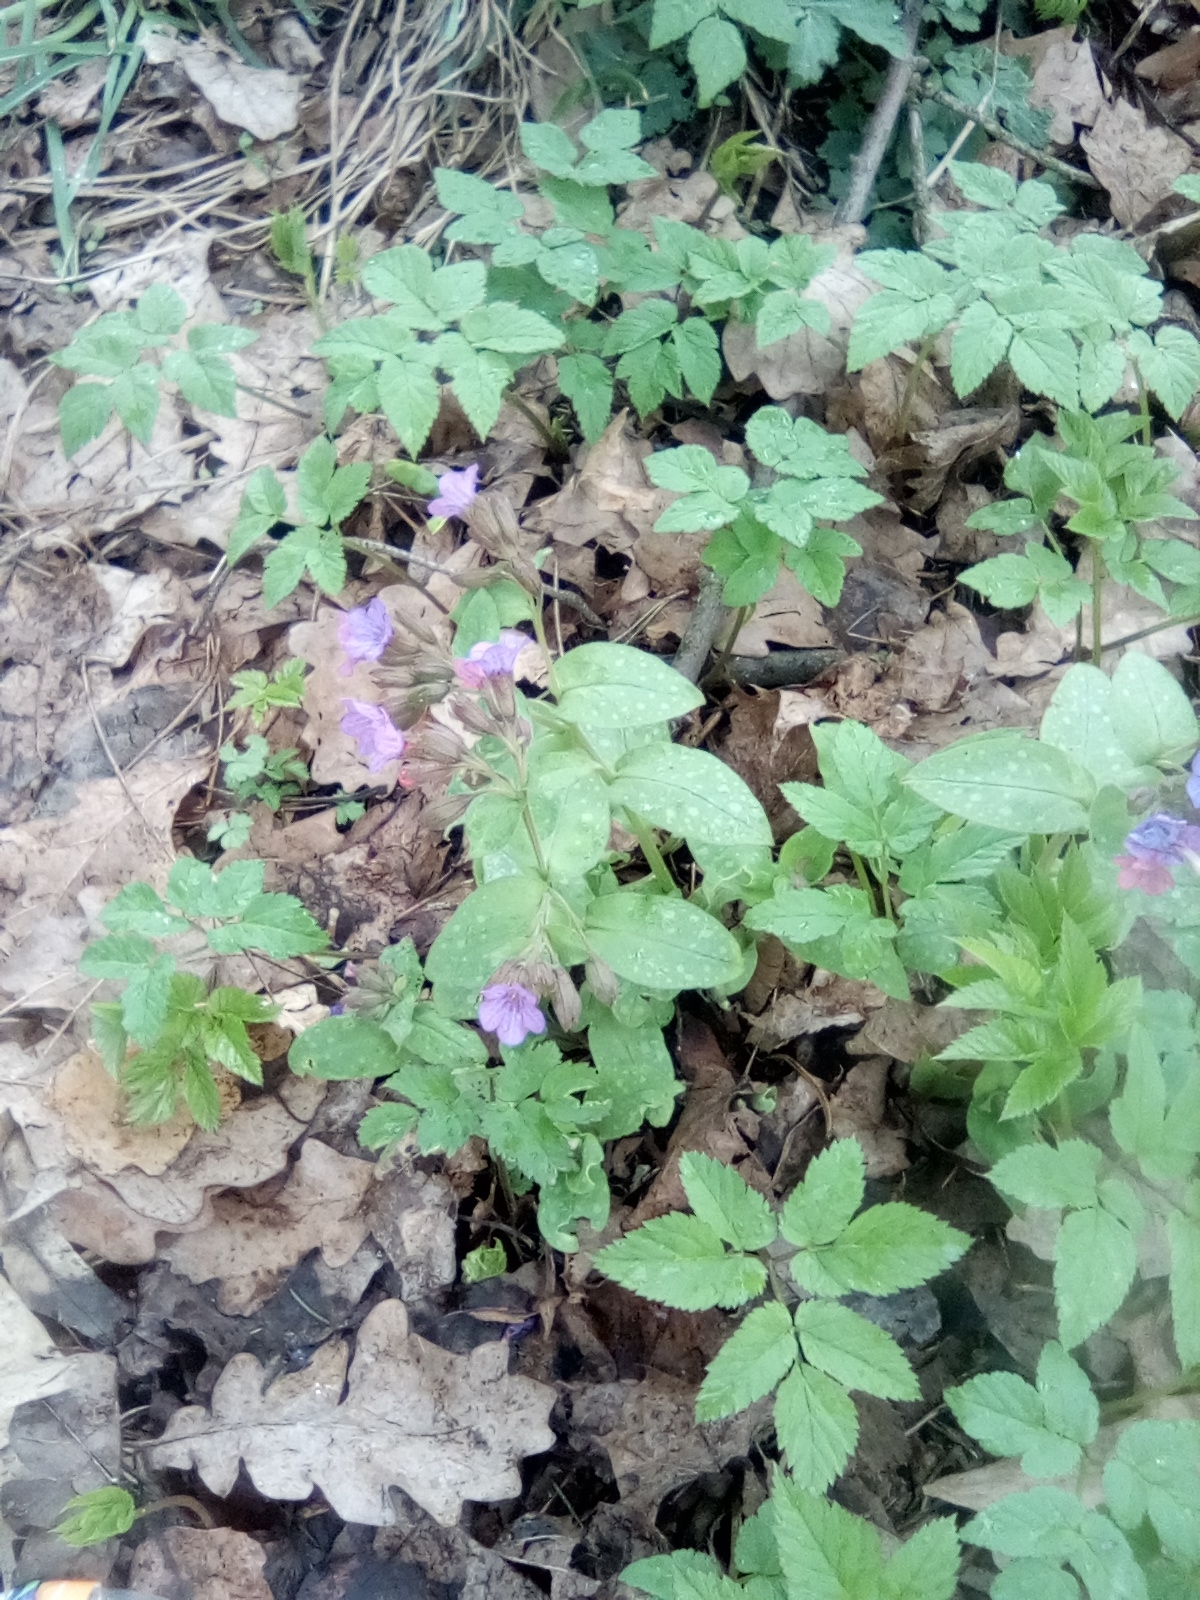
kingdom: Plantae
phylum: Tracheophyta
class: Magnoliopsida
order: Boraginales
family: Boraginaceae
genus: Pulmonaria
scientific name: Pulmonaria obscura
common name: Suffolk lungwort
